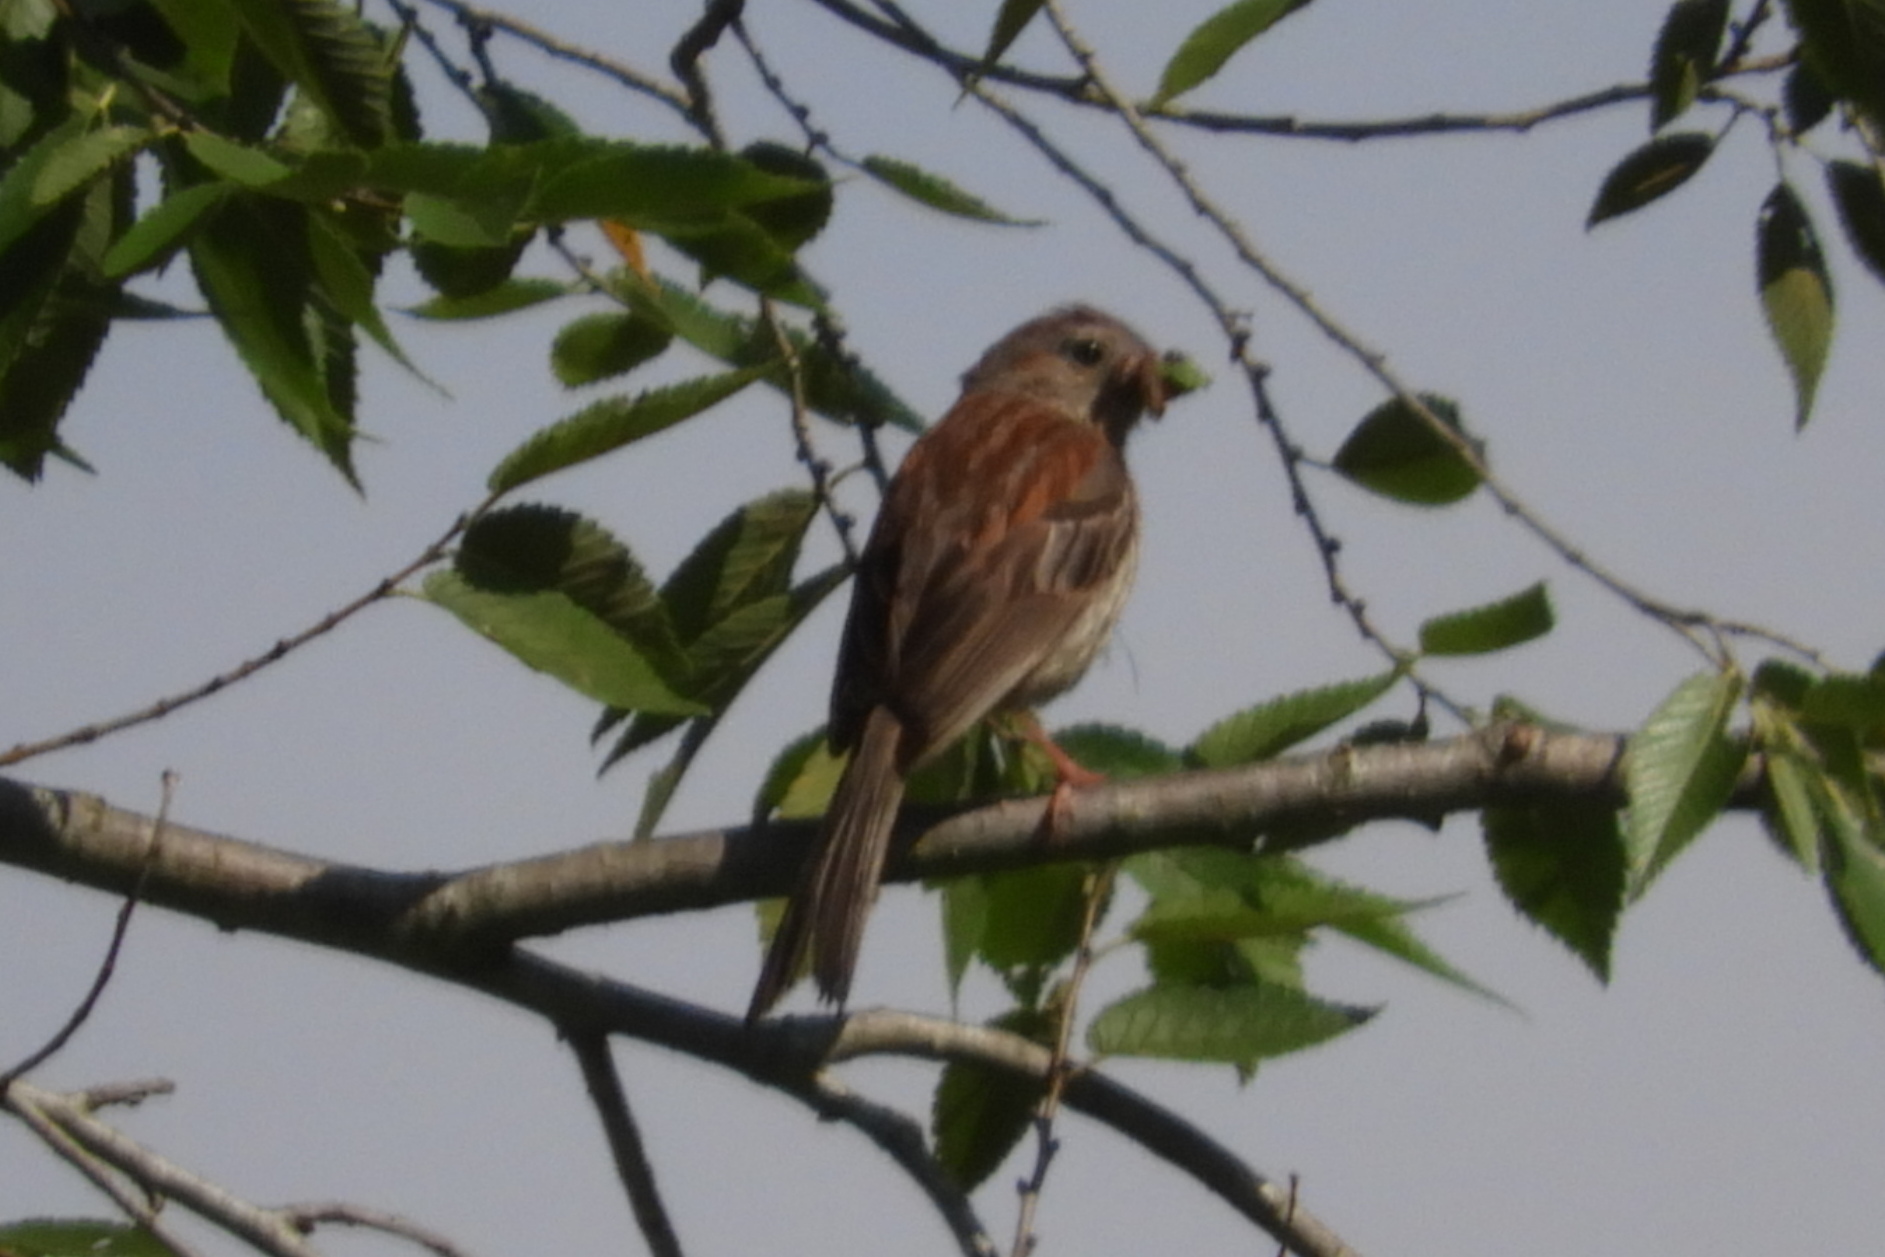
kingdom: Animalia
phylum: Chordata
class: Aves
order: Passeriformes
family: Passerellidae
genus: Spizella
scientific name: Spizella pusilla
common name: Field sparrow
